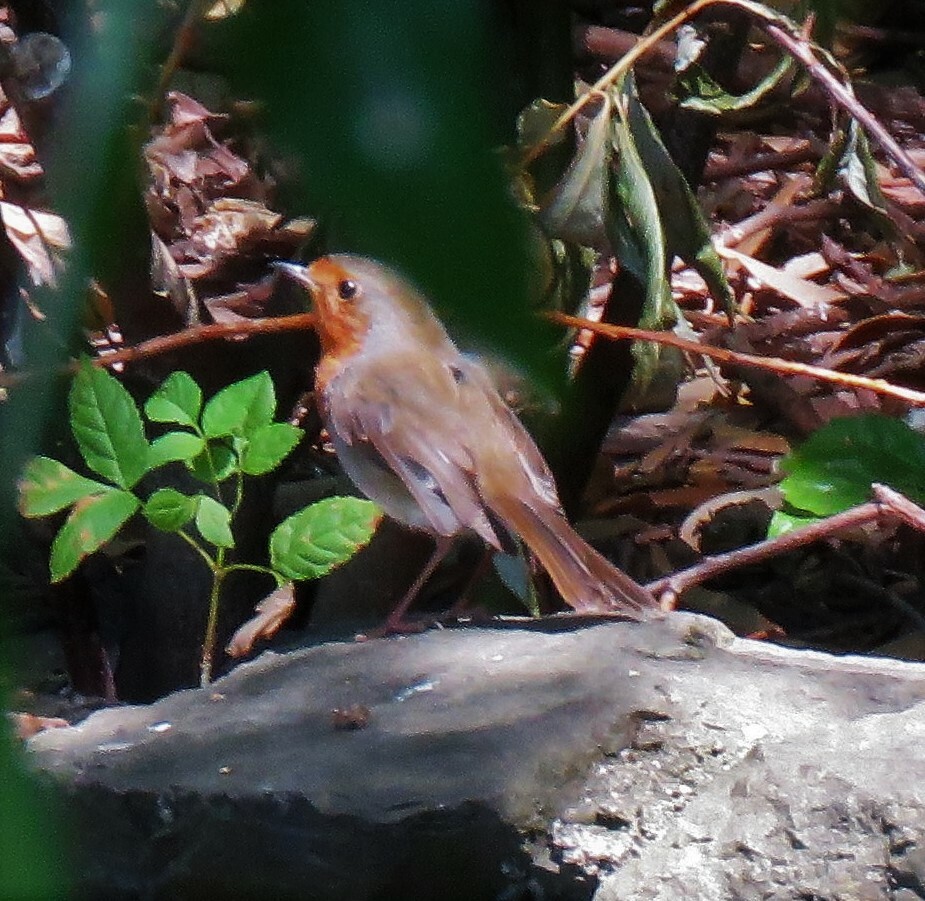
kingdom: Animalia
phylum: Chordata
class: Aves
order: Passeriformes
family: Muscicapidae
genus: Erithacus
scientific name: Erithacus rubecula
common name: European robin
